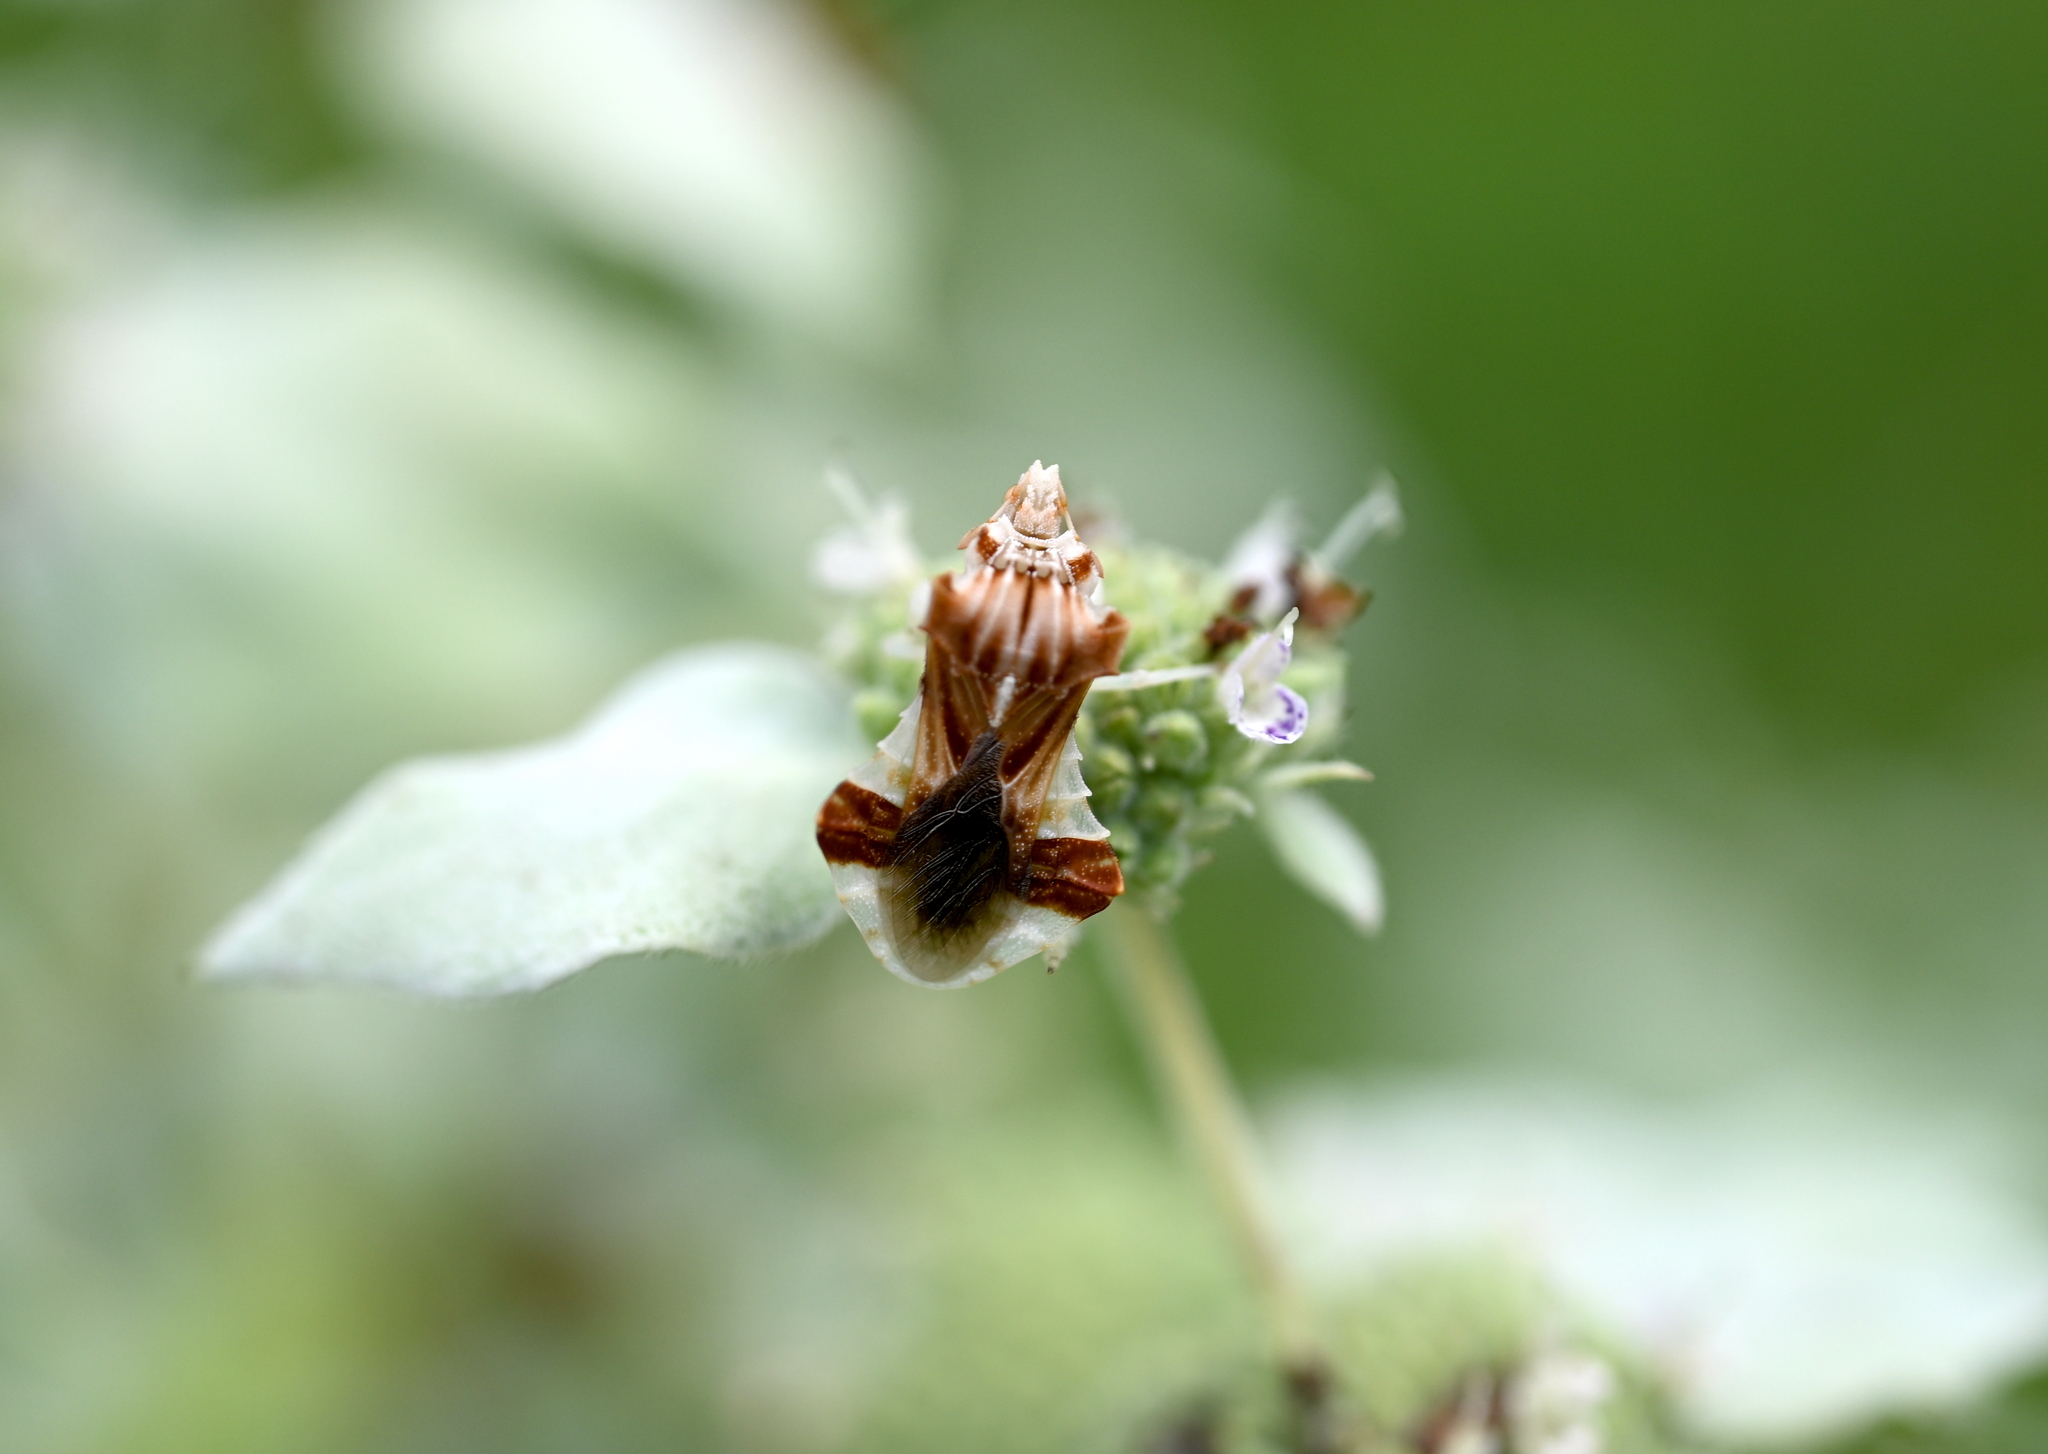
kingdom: Animalia
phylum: Arthropoda
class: Insecta
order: Hemiptera
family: Reduviidae
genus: Phymata
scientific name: Phymata fasciata
